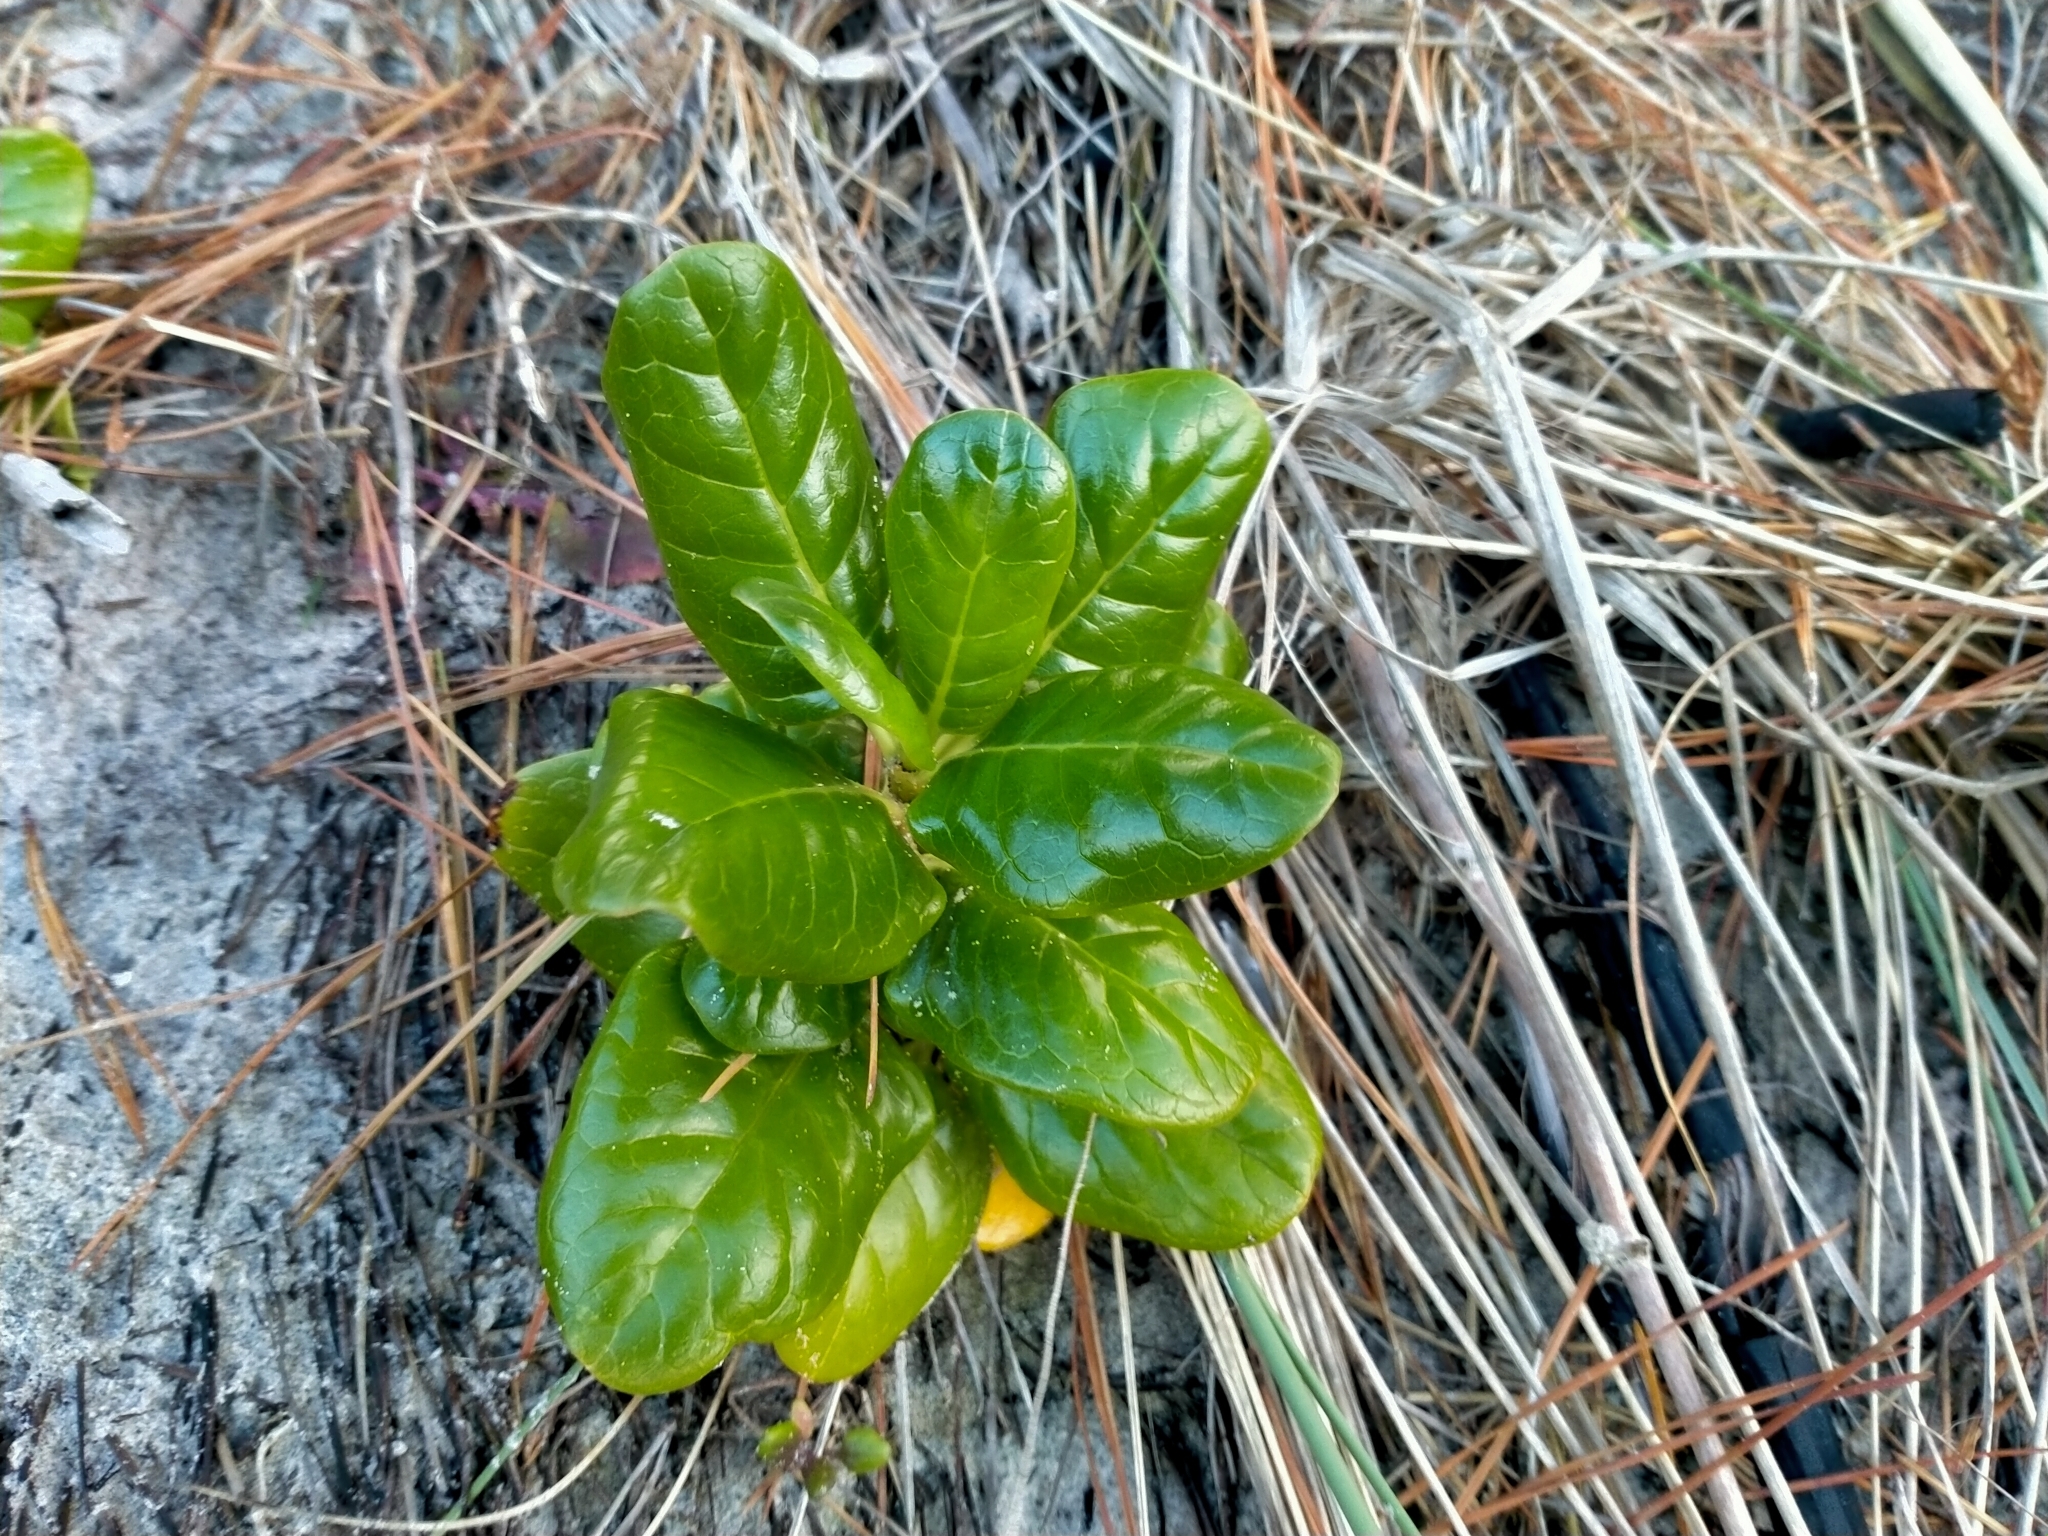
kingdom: Plantae
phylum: Tracheophyta
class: Magnoliopsida
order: Gentianales
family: Rubiaceae
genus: Coprosma
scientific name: Coprosma repens
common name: Tree bedstraw
